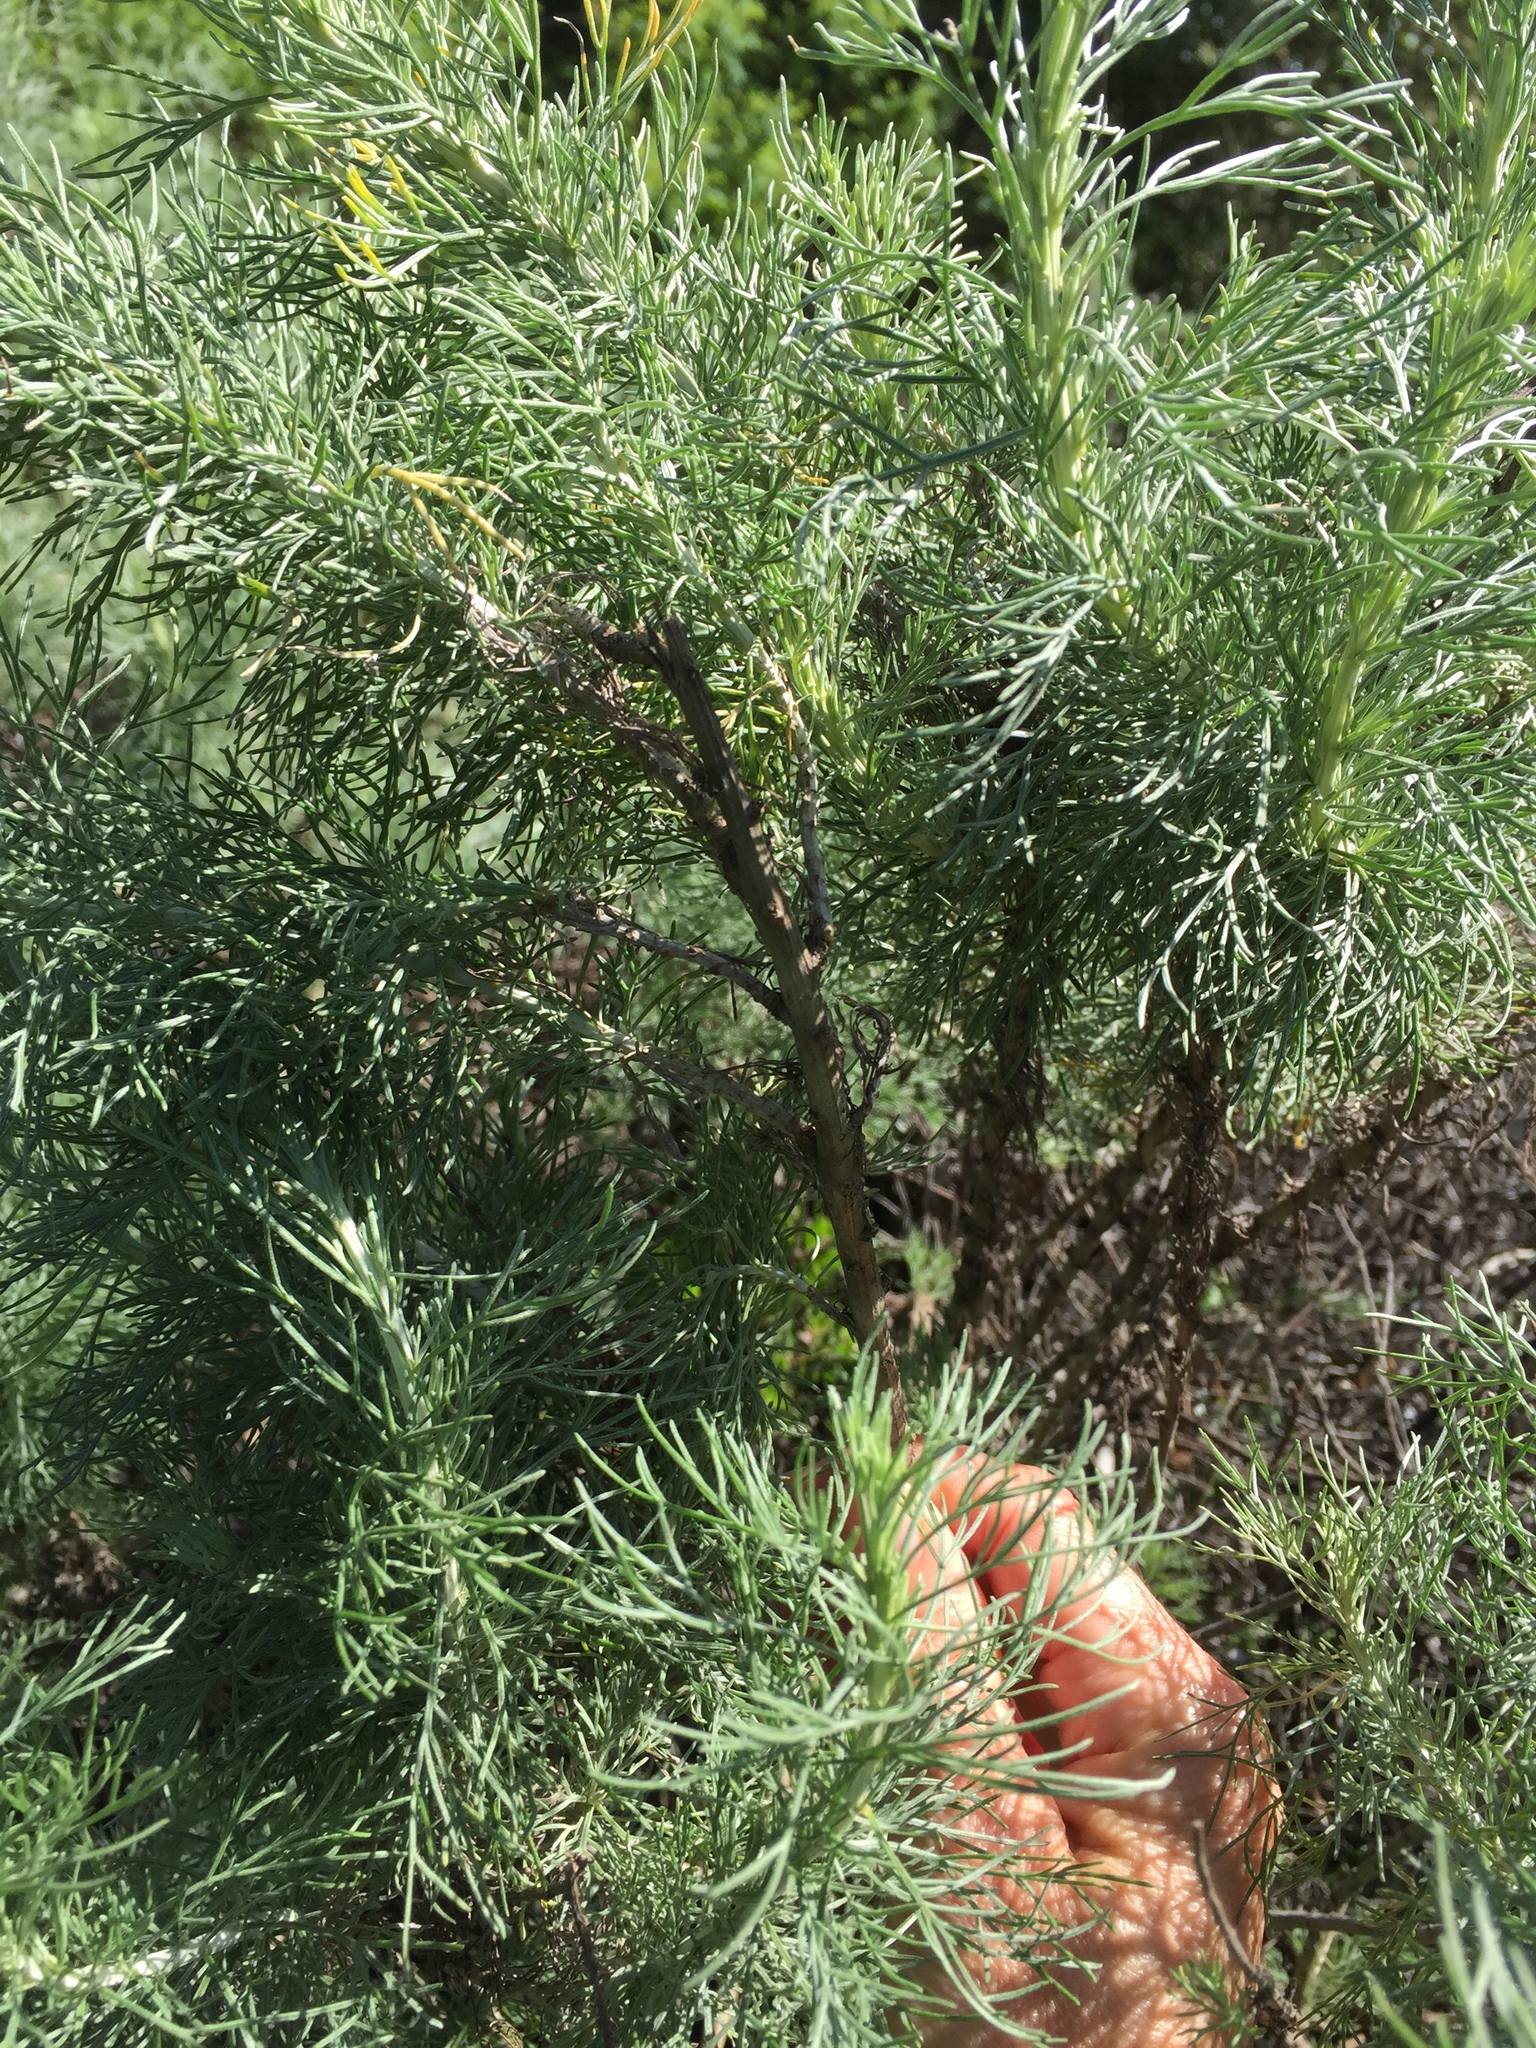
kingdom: Plantae
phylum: Tracheophyta
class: Magnoliopsida
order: Asterales
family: Asteraceae
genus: Artemisia
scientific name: Artemisia californica
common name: California sagebrush
